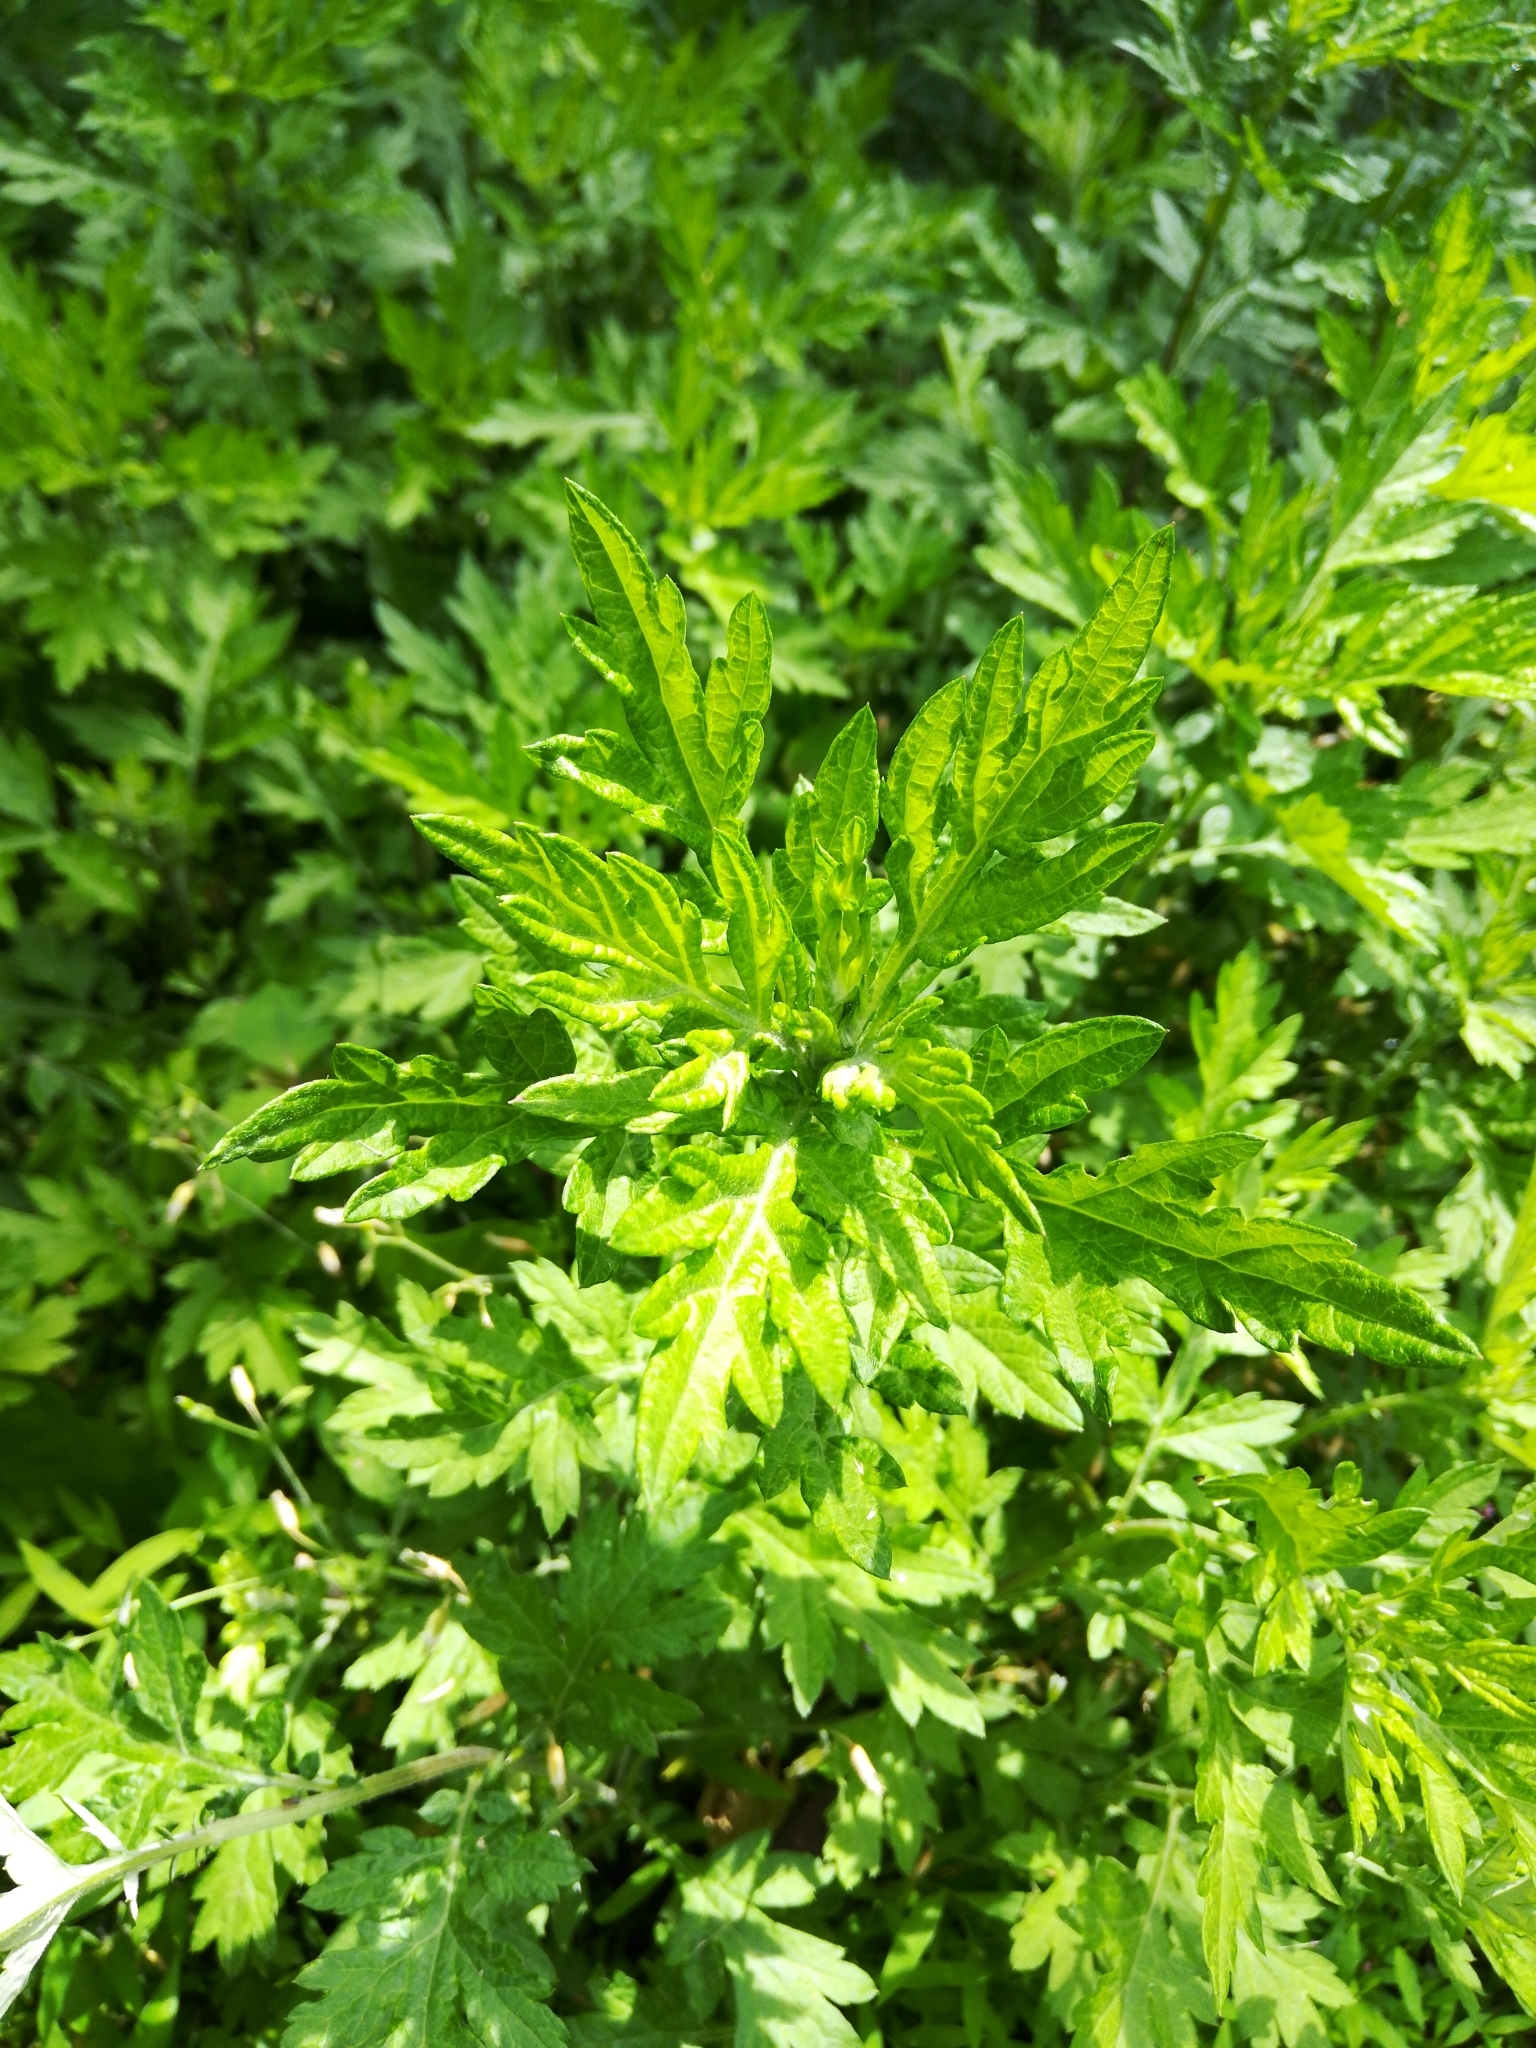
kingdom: Plantae
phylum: Tracheophyta
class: Magnoliopsida
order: Asterales
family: Asteraceae
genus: Artemisia
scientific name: Artemisia vulgaris
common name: Mugwort
